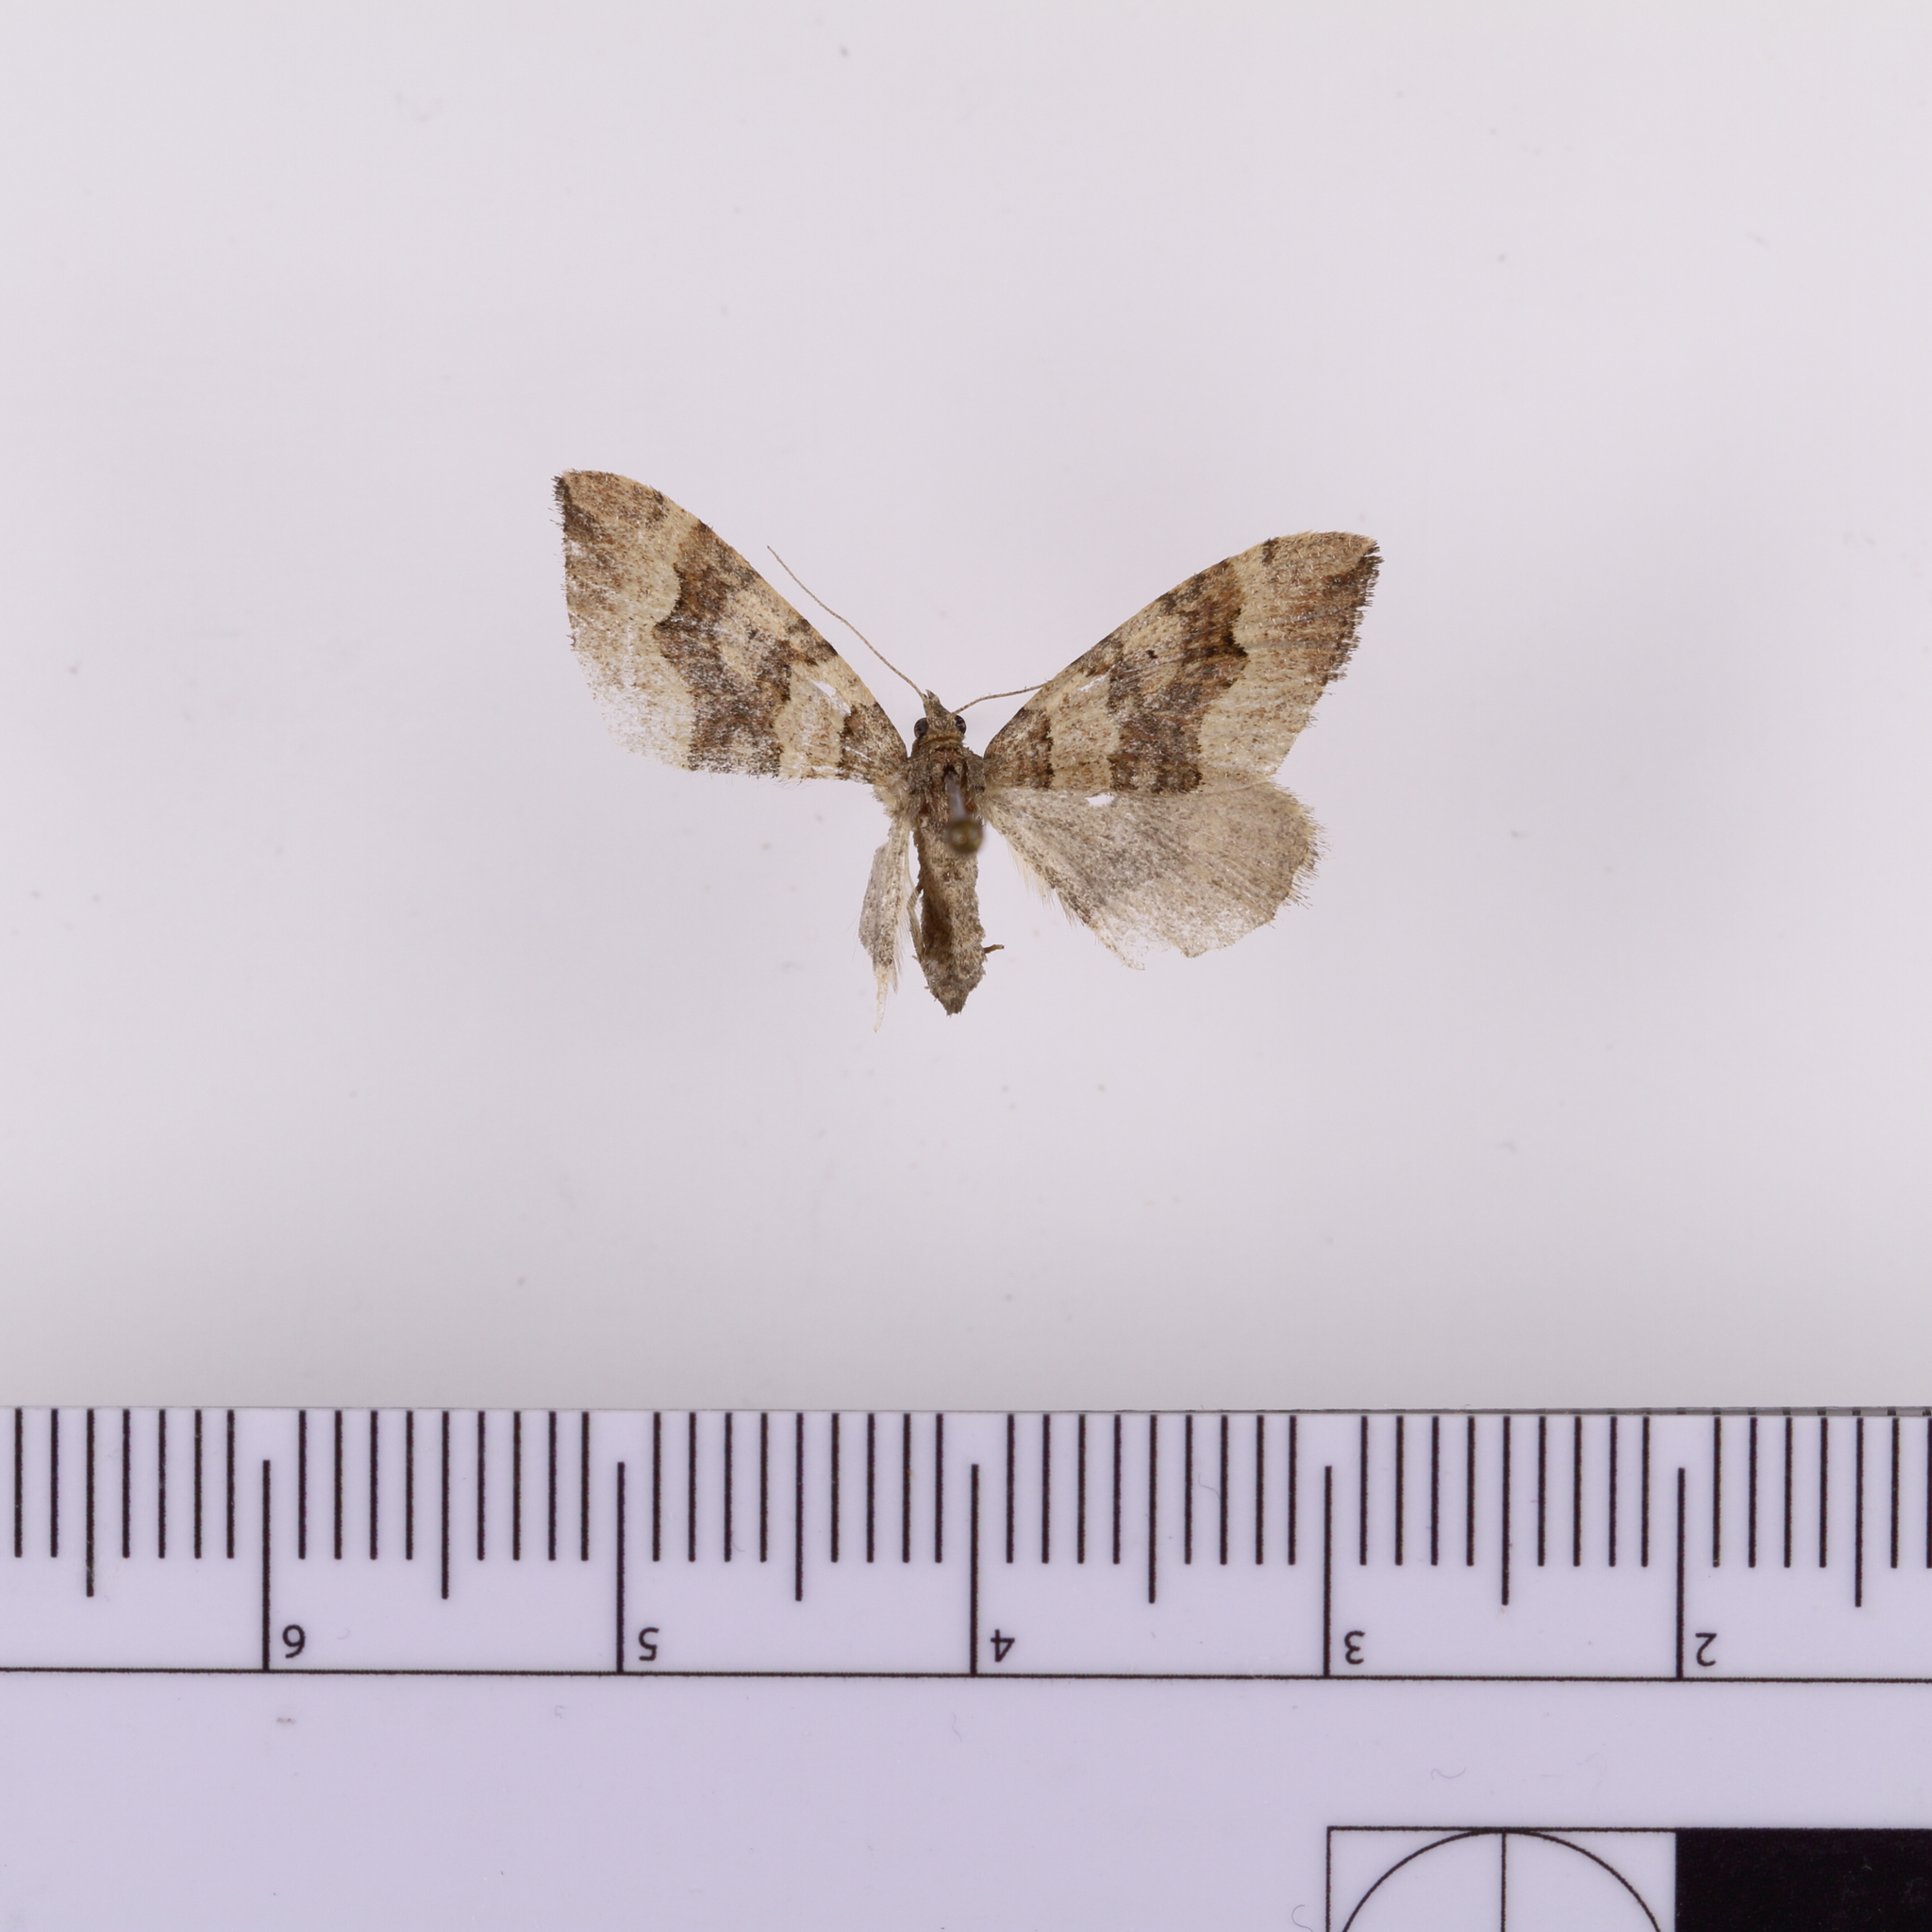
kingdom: Animalia
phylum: Arthropoda
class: Insecta
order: Lepidoptera
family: Geometridae
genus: Epyaxa
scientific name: Epyaxa rosearia
